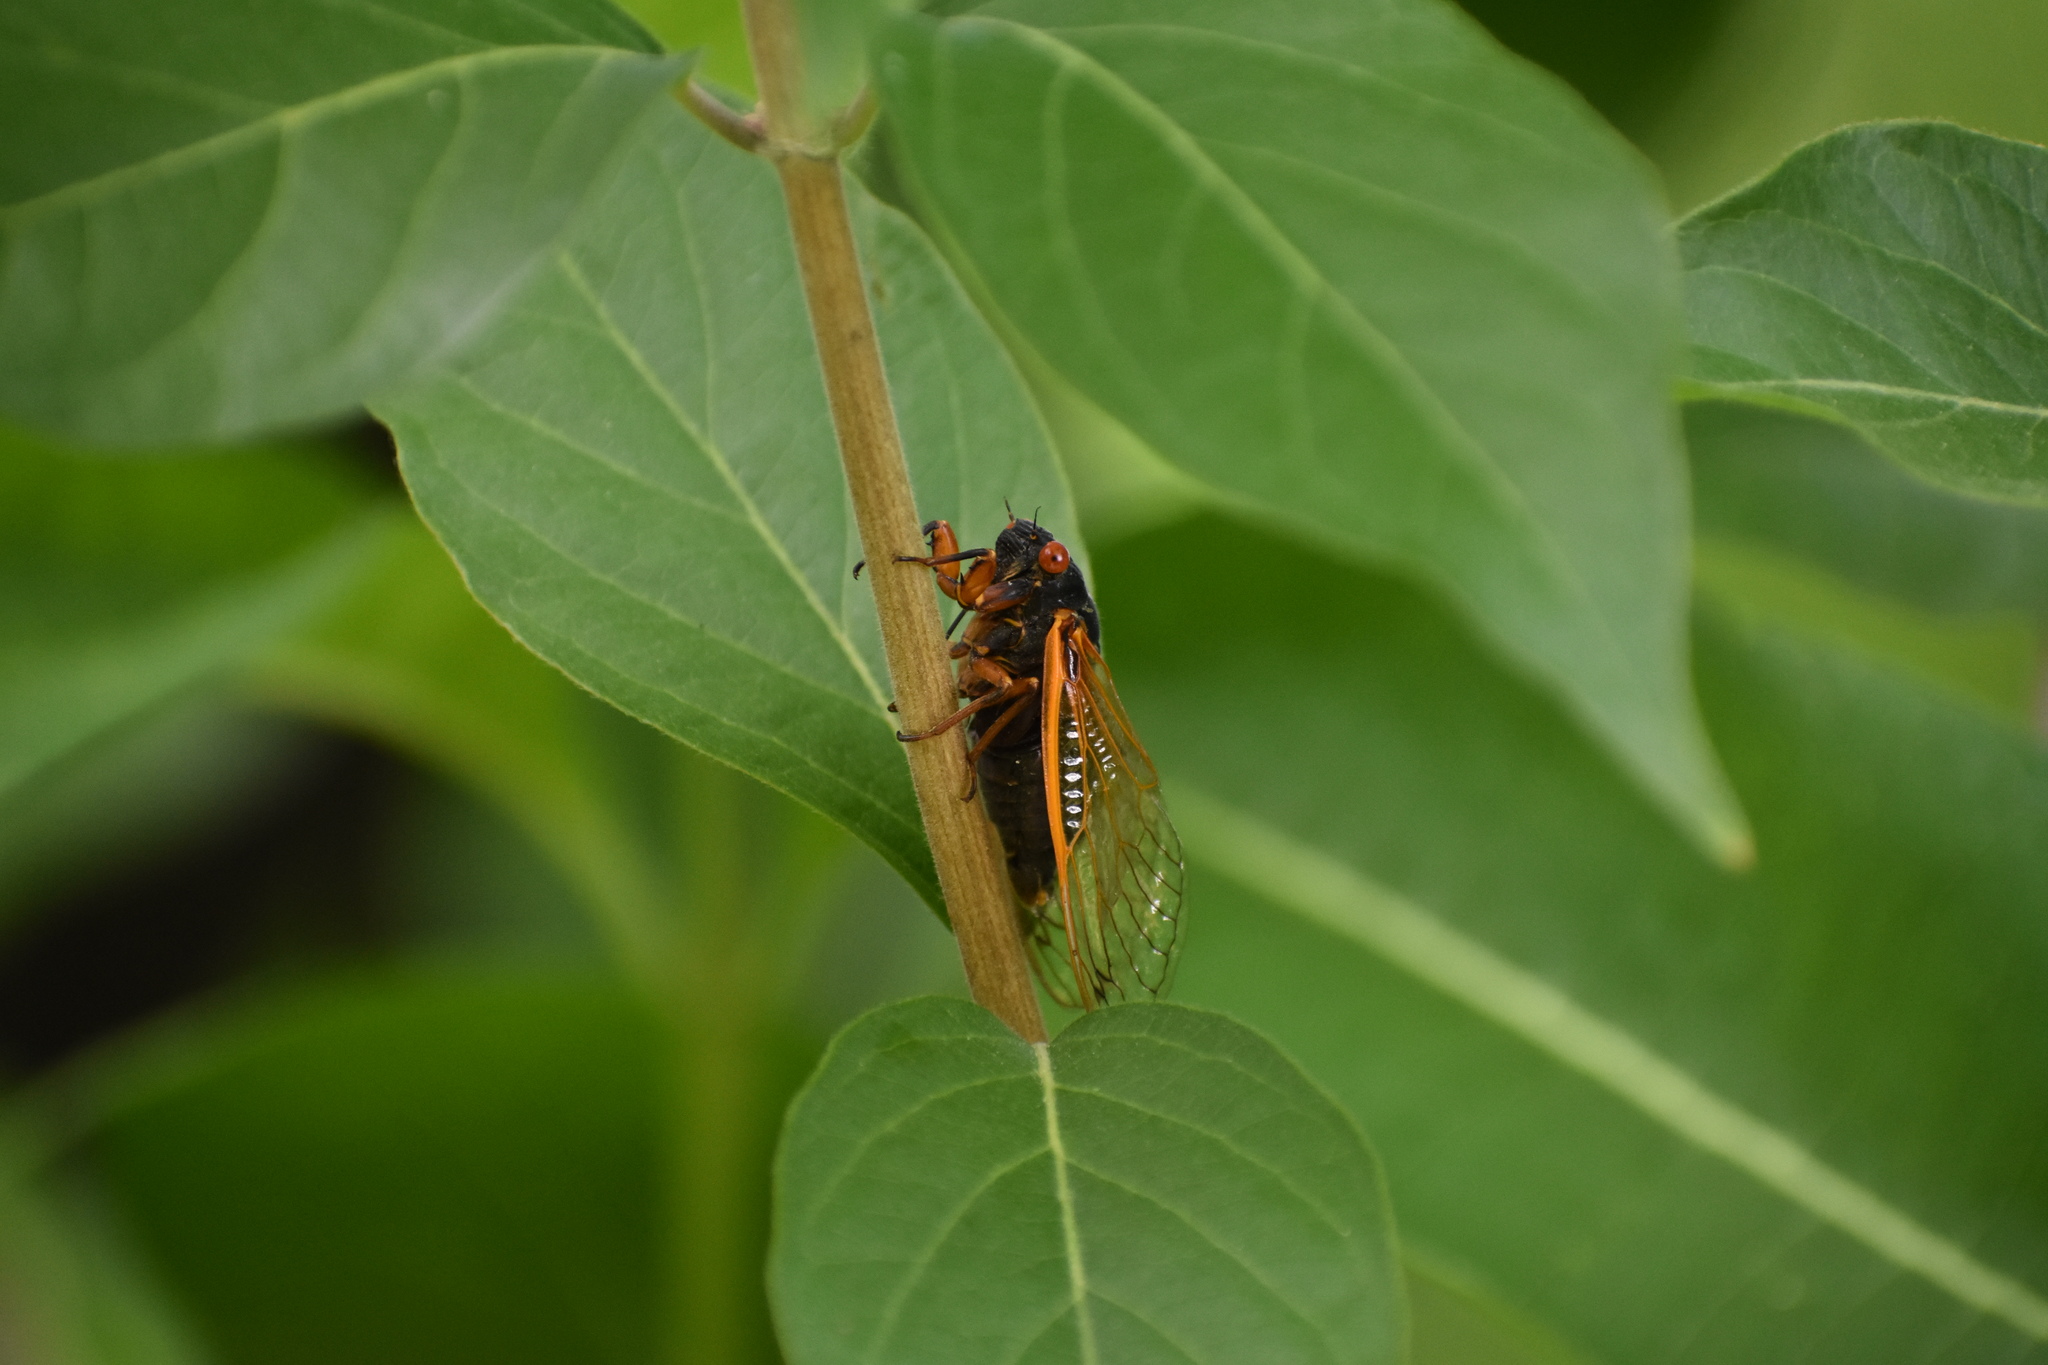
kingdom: Animalia
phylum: Arthropoda
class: Insecta
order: Hemiptera
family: Cicadidae
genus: Magicicada
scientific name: Magicicada cassini
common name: Cassin's 17-year cicada
